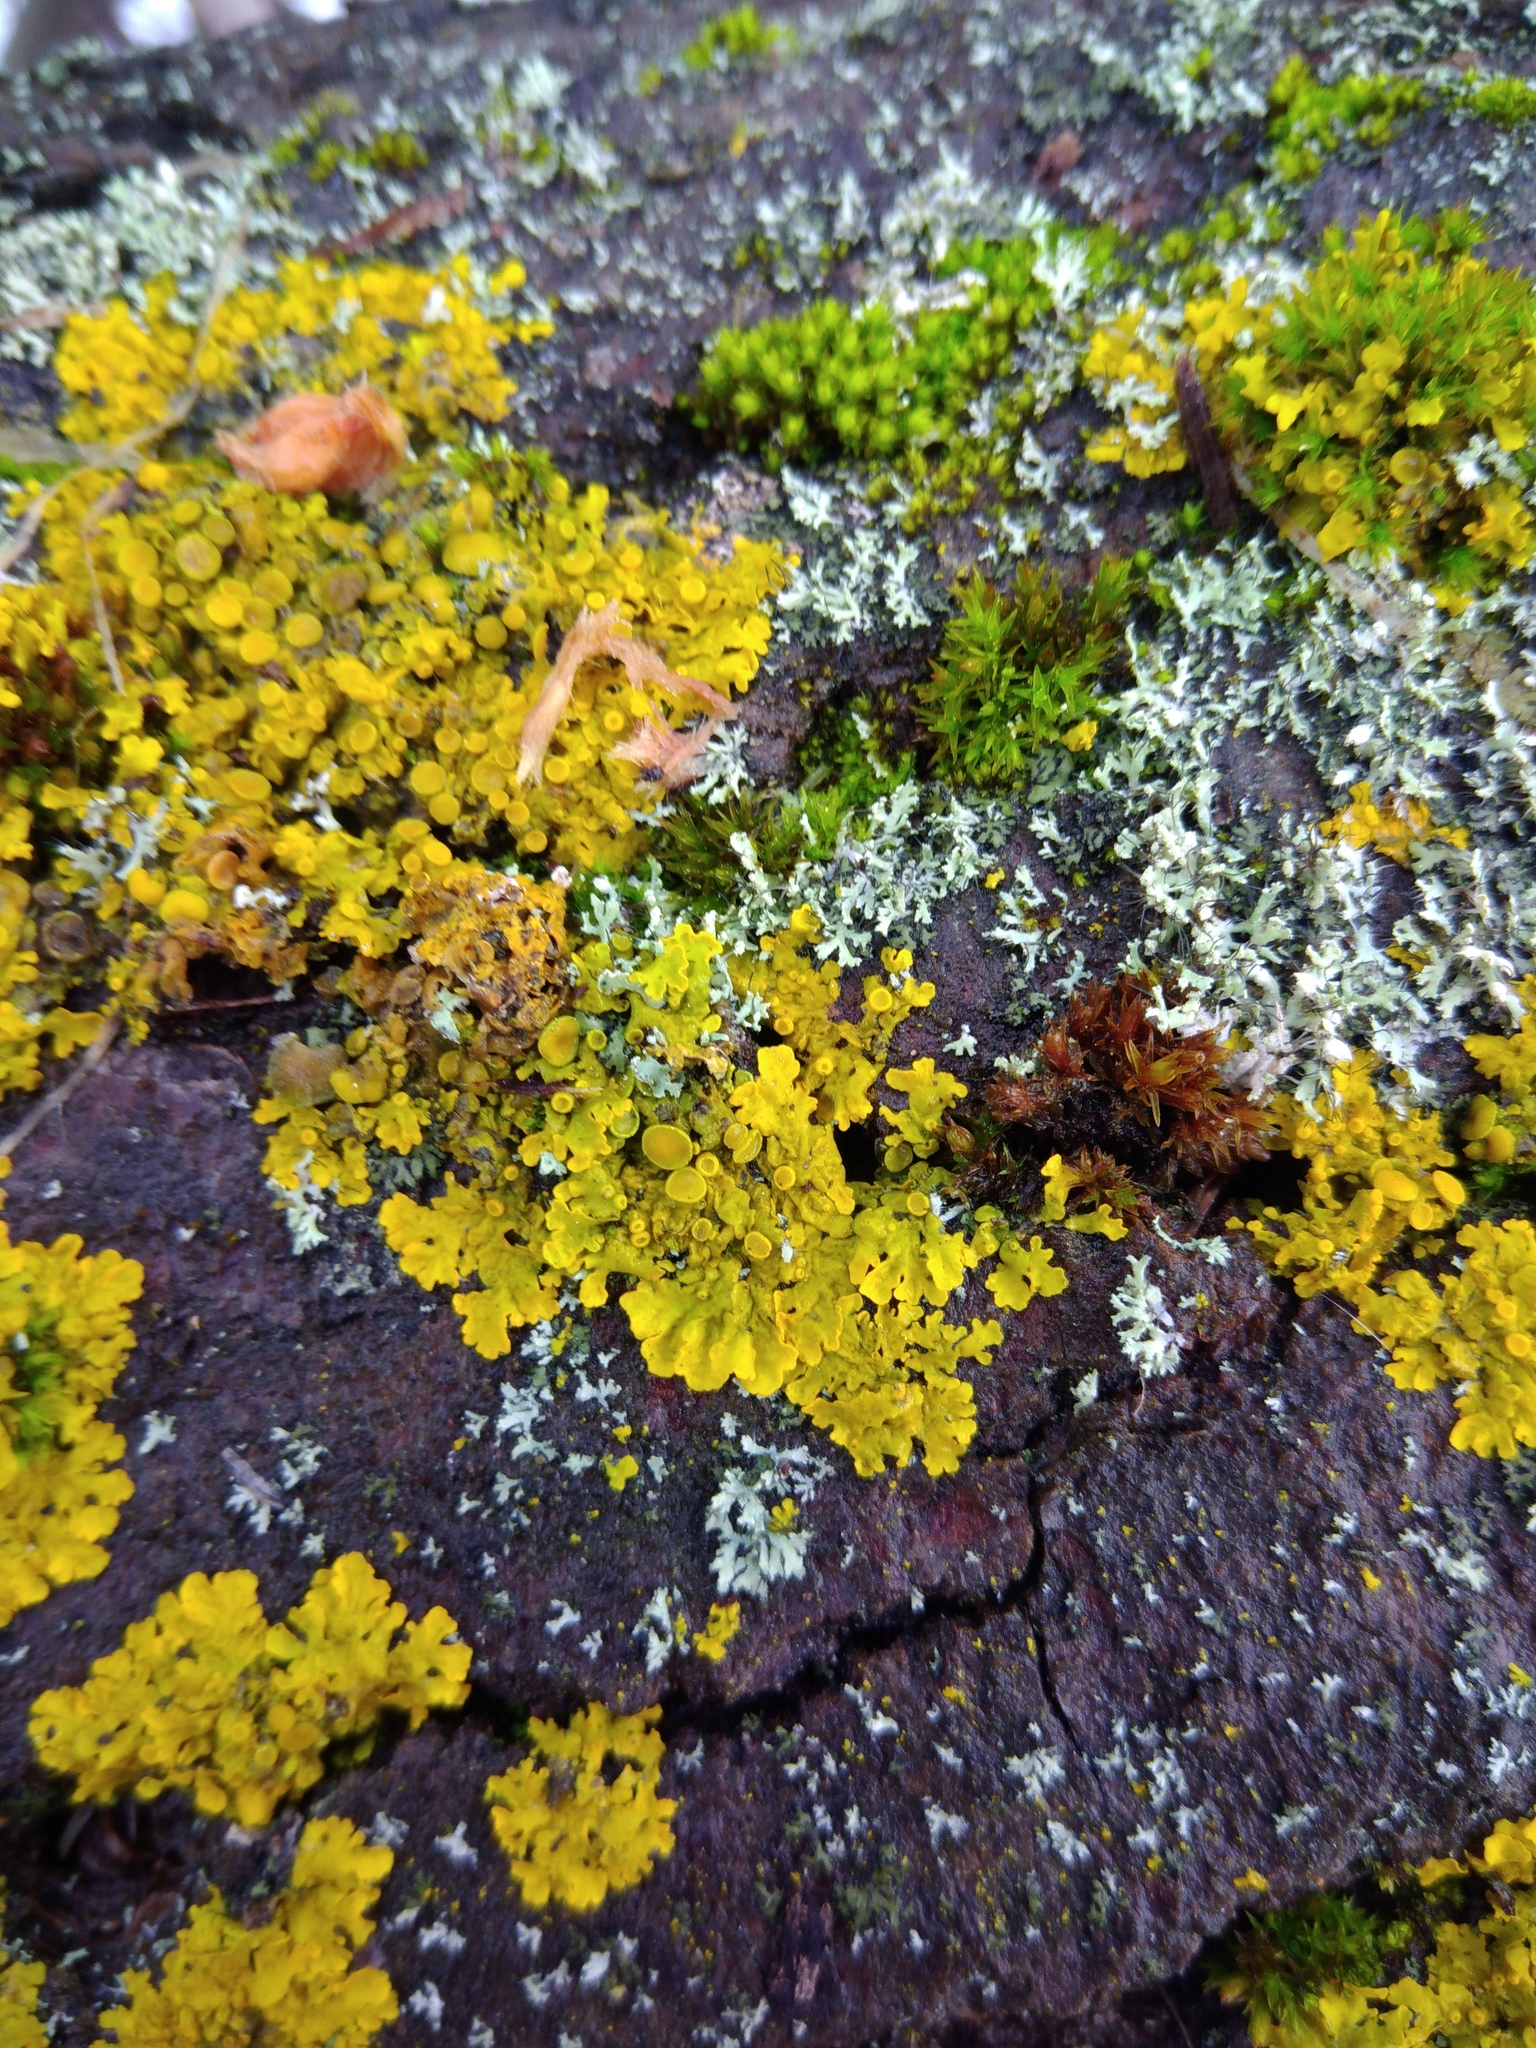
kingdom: Fungi
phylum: Ascomycota
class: Lecanoromycetes
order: Teloschistales
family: Teloschistaceae
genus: Xanthoria
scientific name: Xanthoria parietina
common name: Common orange lichen
